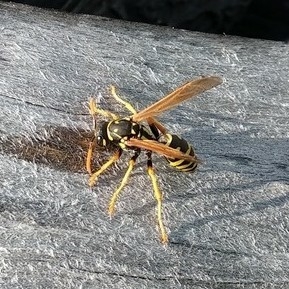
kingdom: Animalia
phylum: Arthropoda
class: Insecta
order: Hymenoptera
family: Eumenidae
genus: Polistes
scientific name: Polistes dominula
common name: Paper wasp
